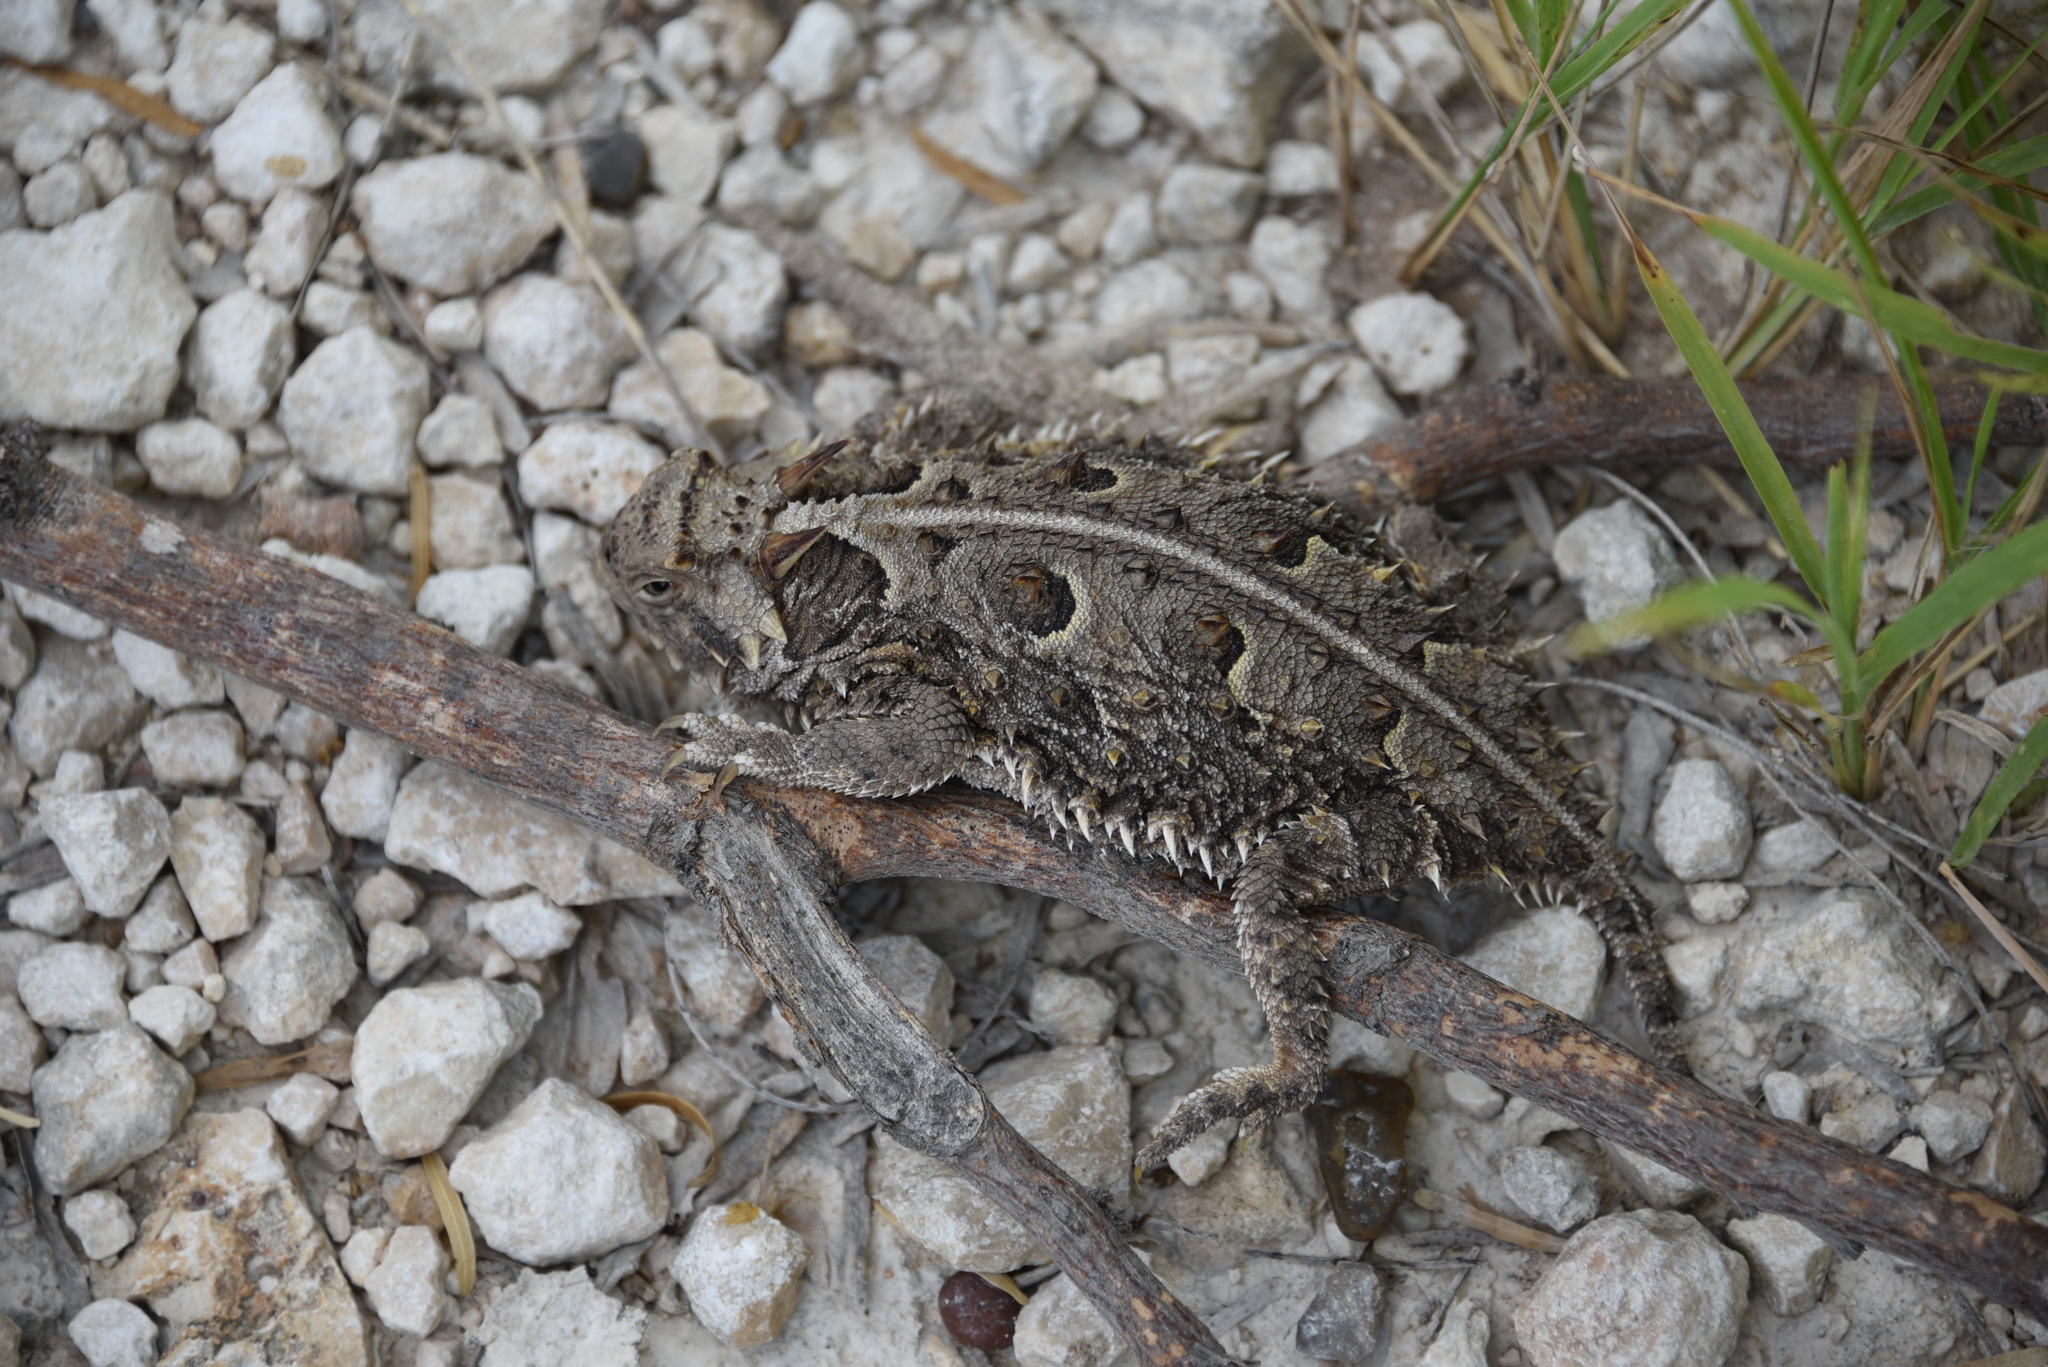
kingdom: Animalia
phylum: Chordata
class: Squamata
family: Phrynosomatidae
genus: Phrynosoma
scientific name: Phrynosoma cornutum
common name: Texas horned lizard
